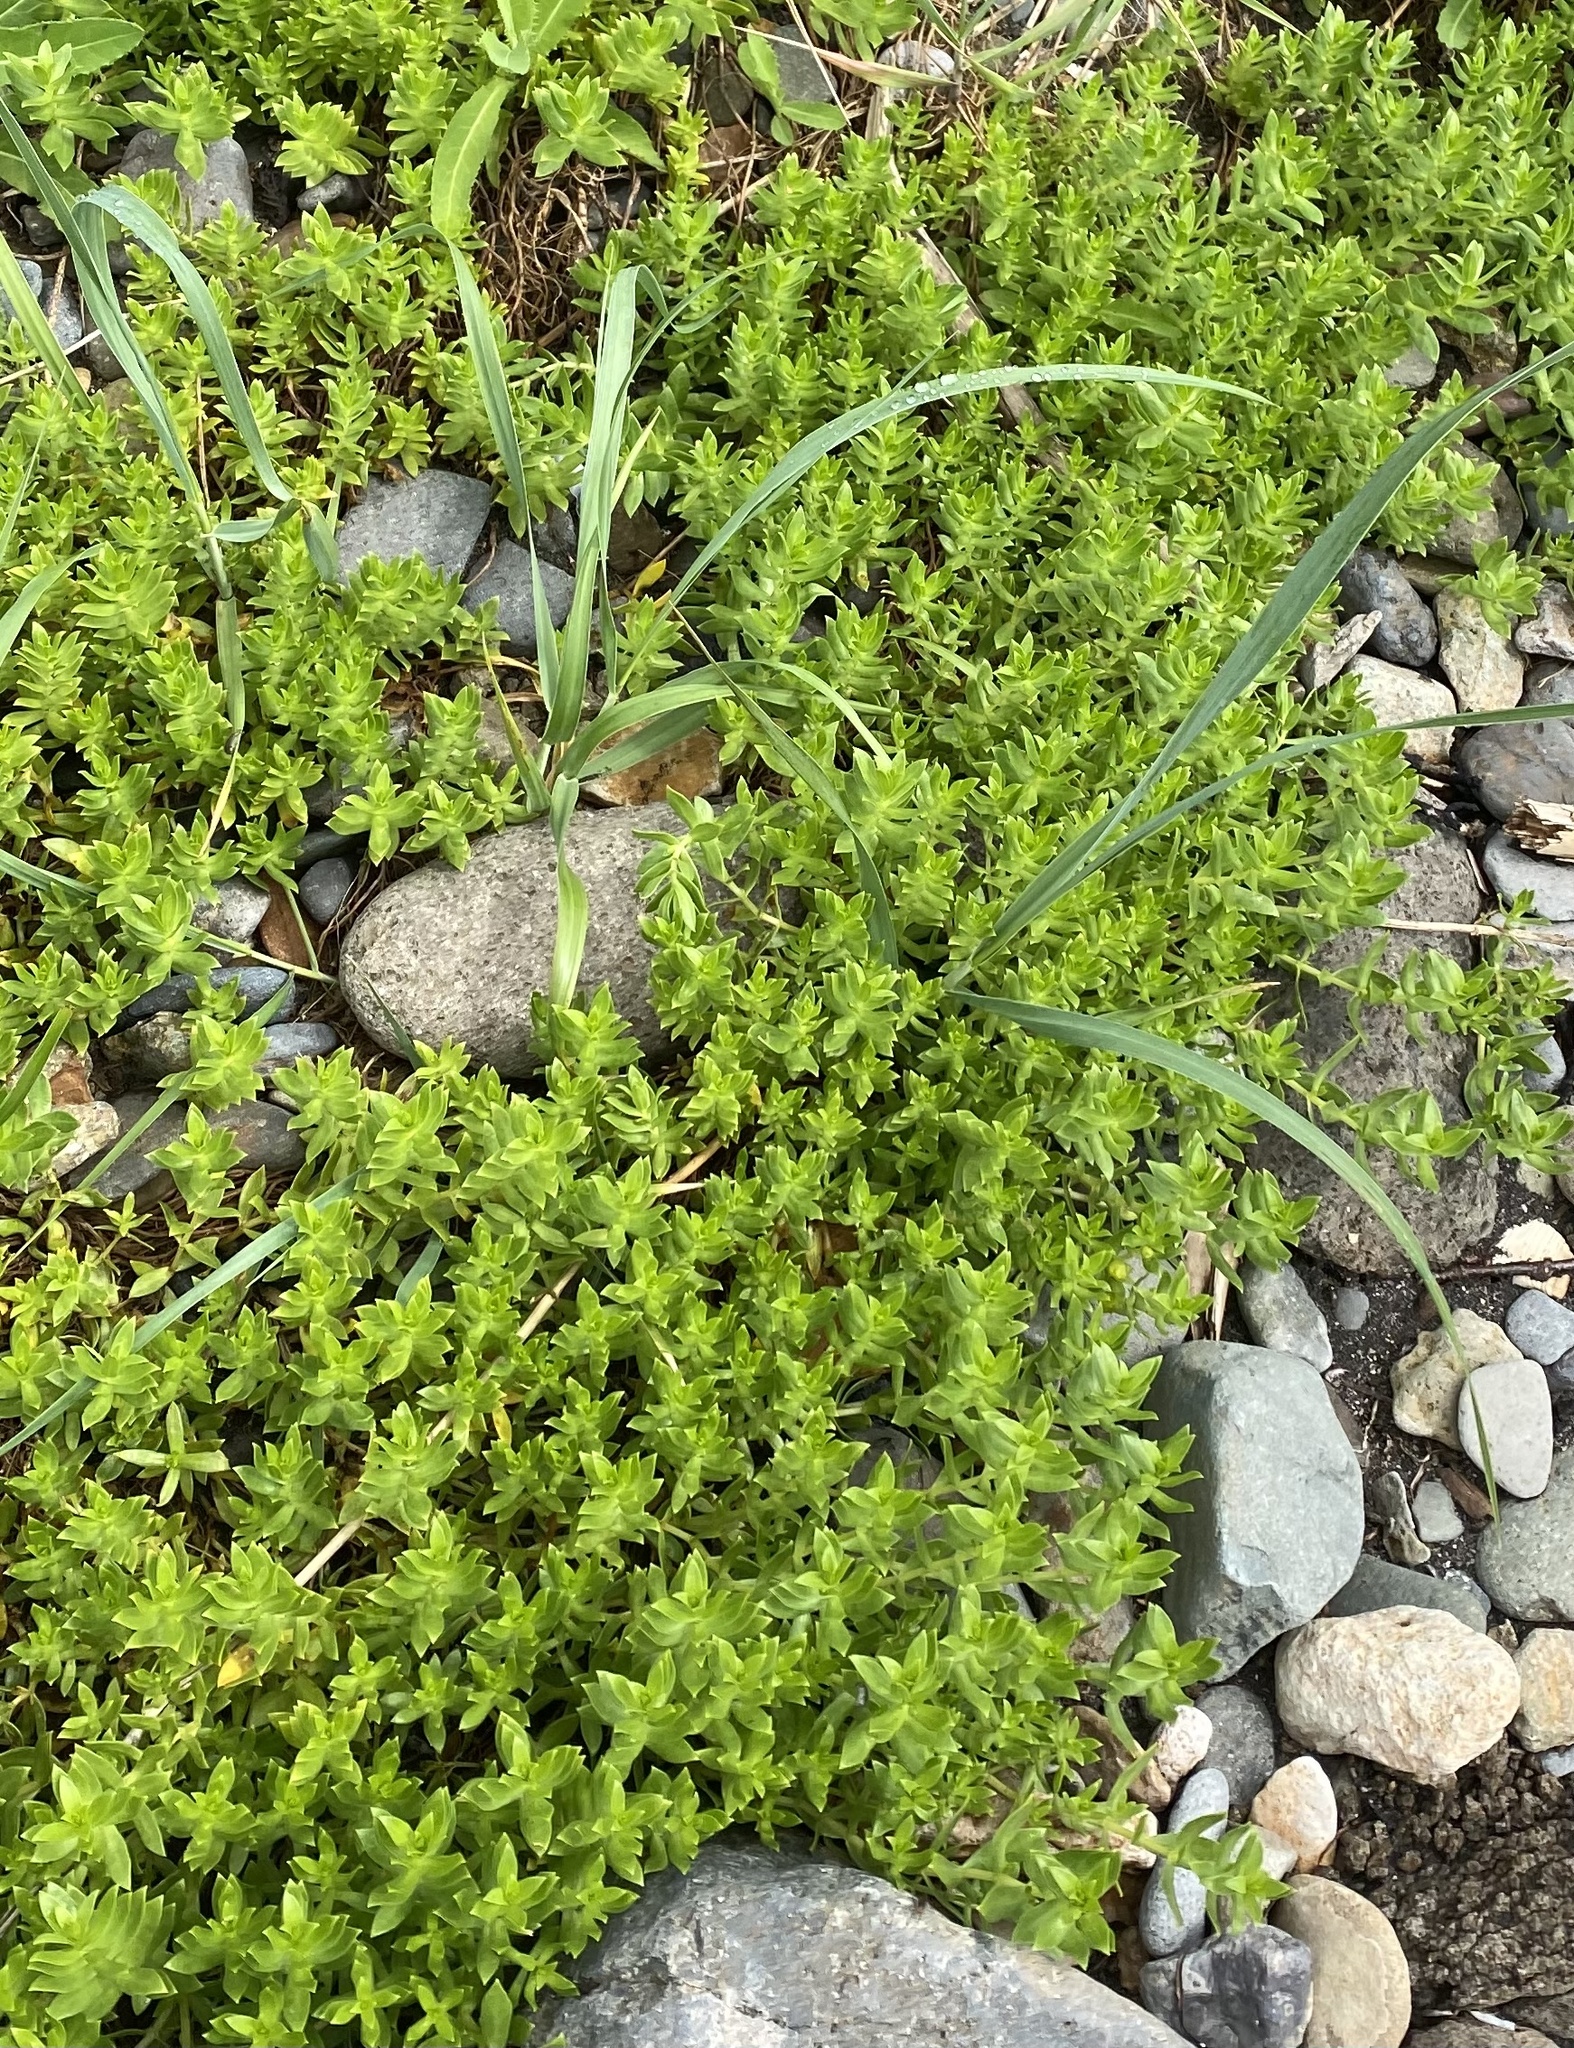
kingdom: Plantae
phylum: Tracheophyta
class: Magnoliopsida
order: Caryophyllales
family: Caryophyllaceae
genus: Honckenya
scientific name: Honckenya peploides
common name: Sea sandwort
